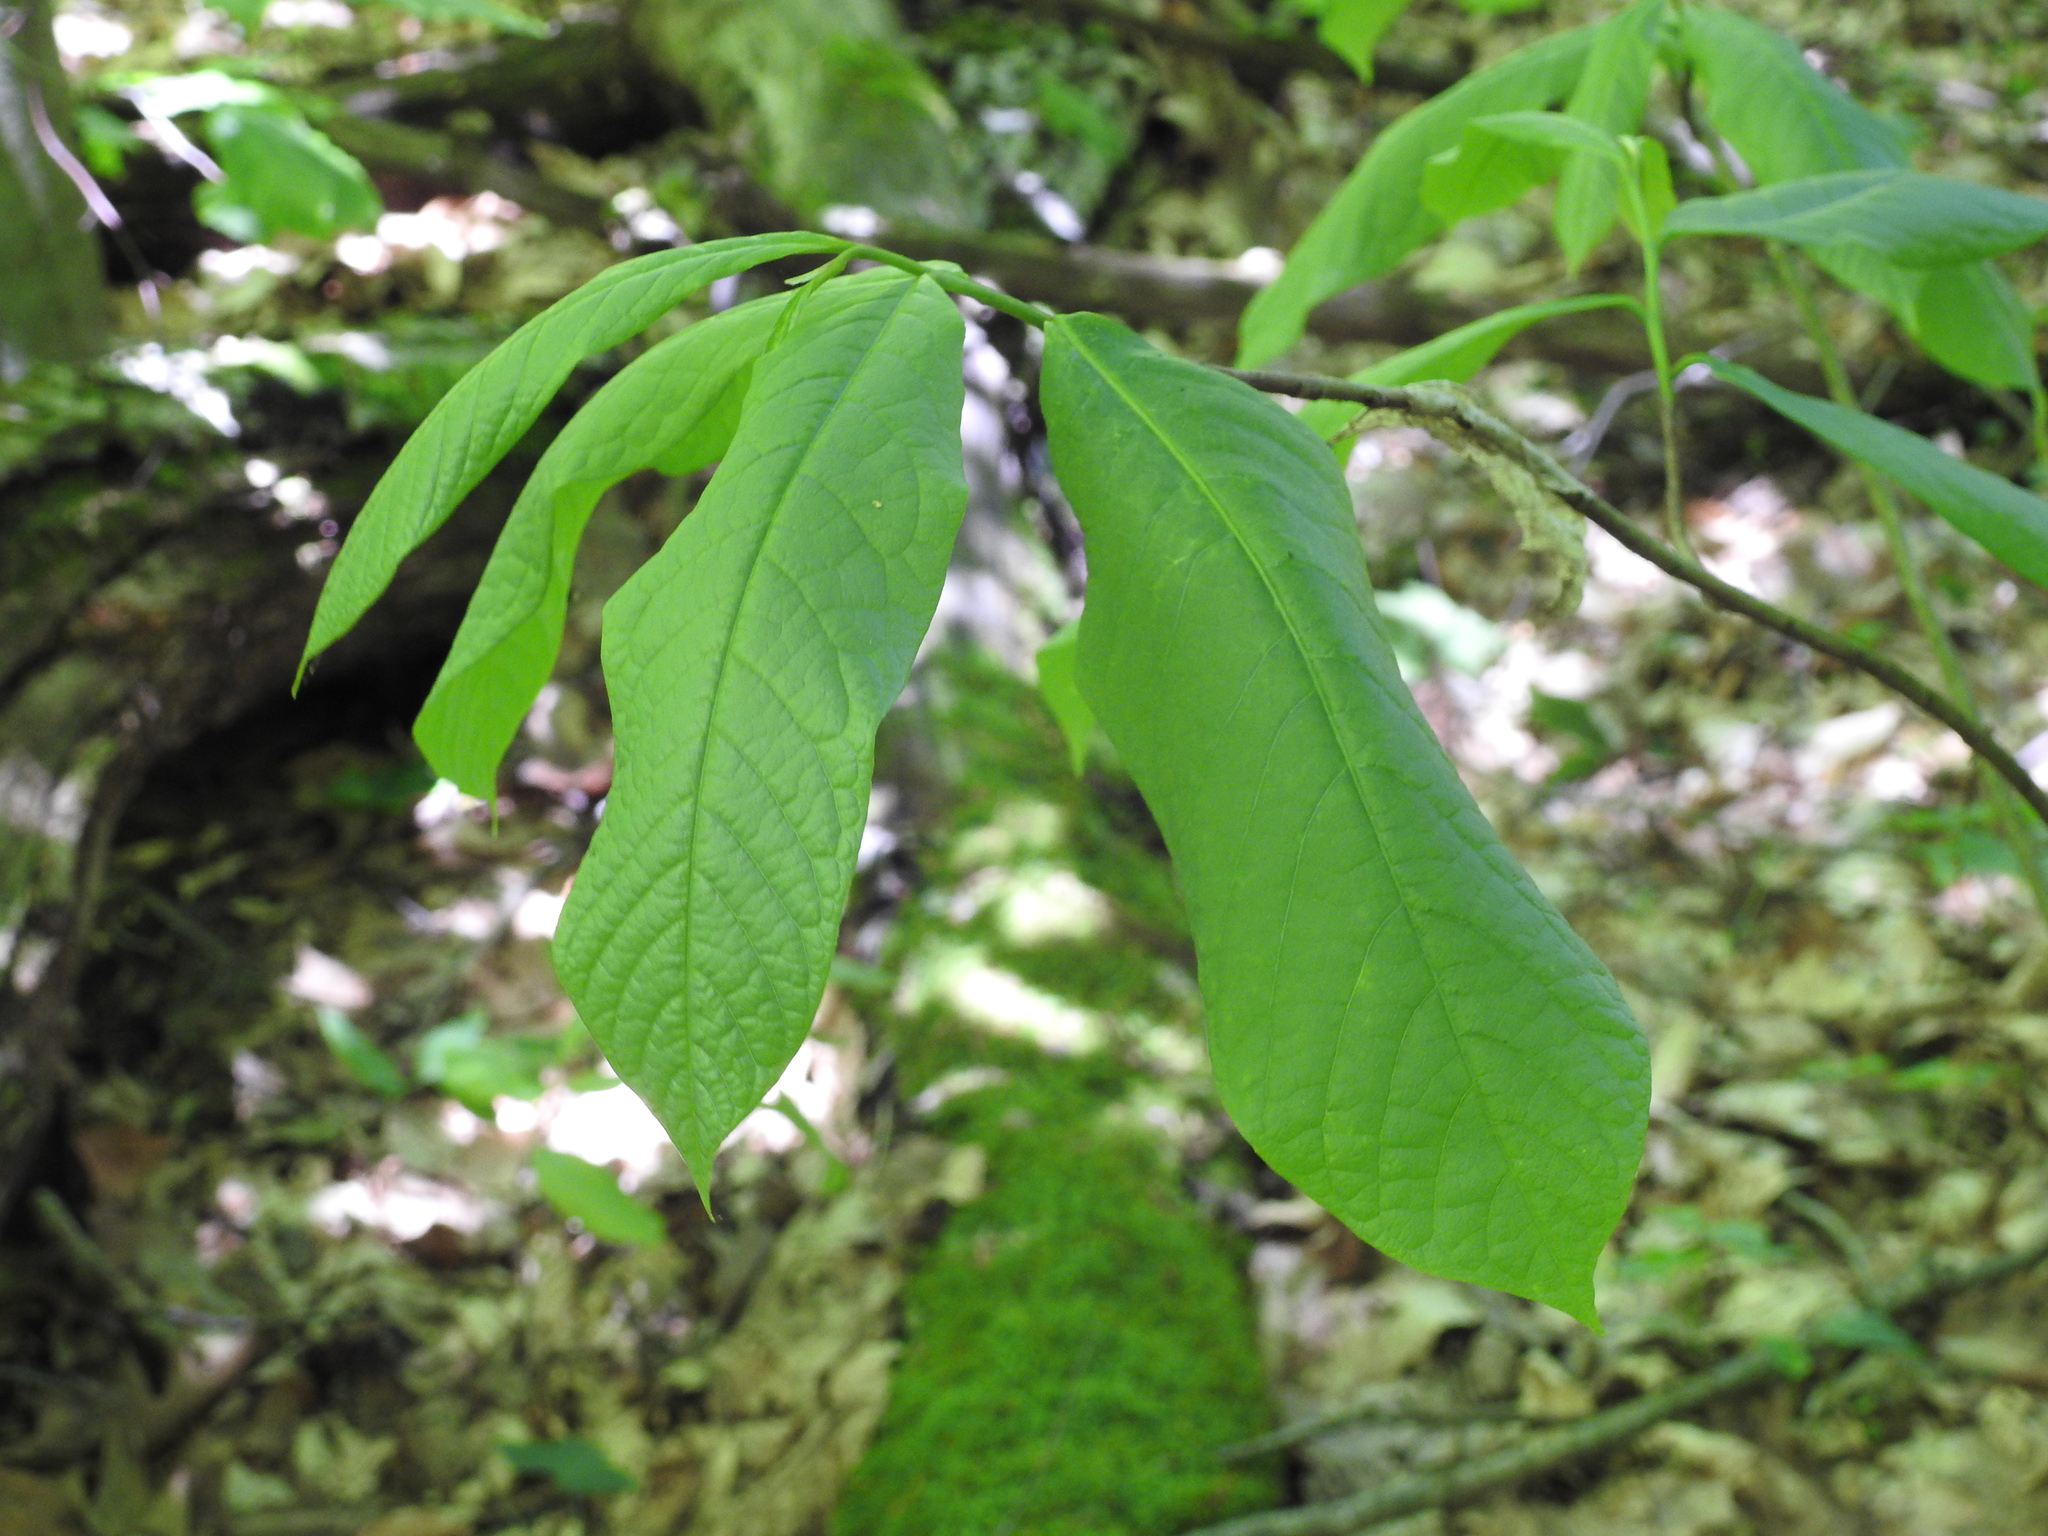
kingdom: Plantae
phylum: Tracheophyta
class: Magnoliopsida
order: Magnoliales
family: Annonaceae
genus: Asimina
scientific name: Asimina triloba
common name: Dog-banana
